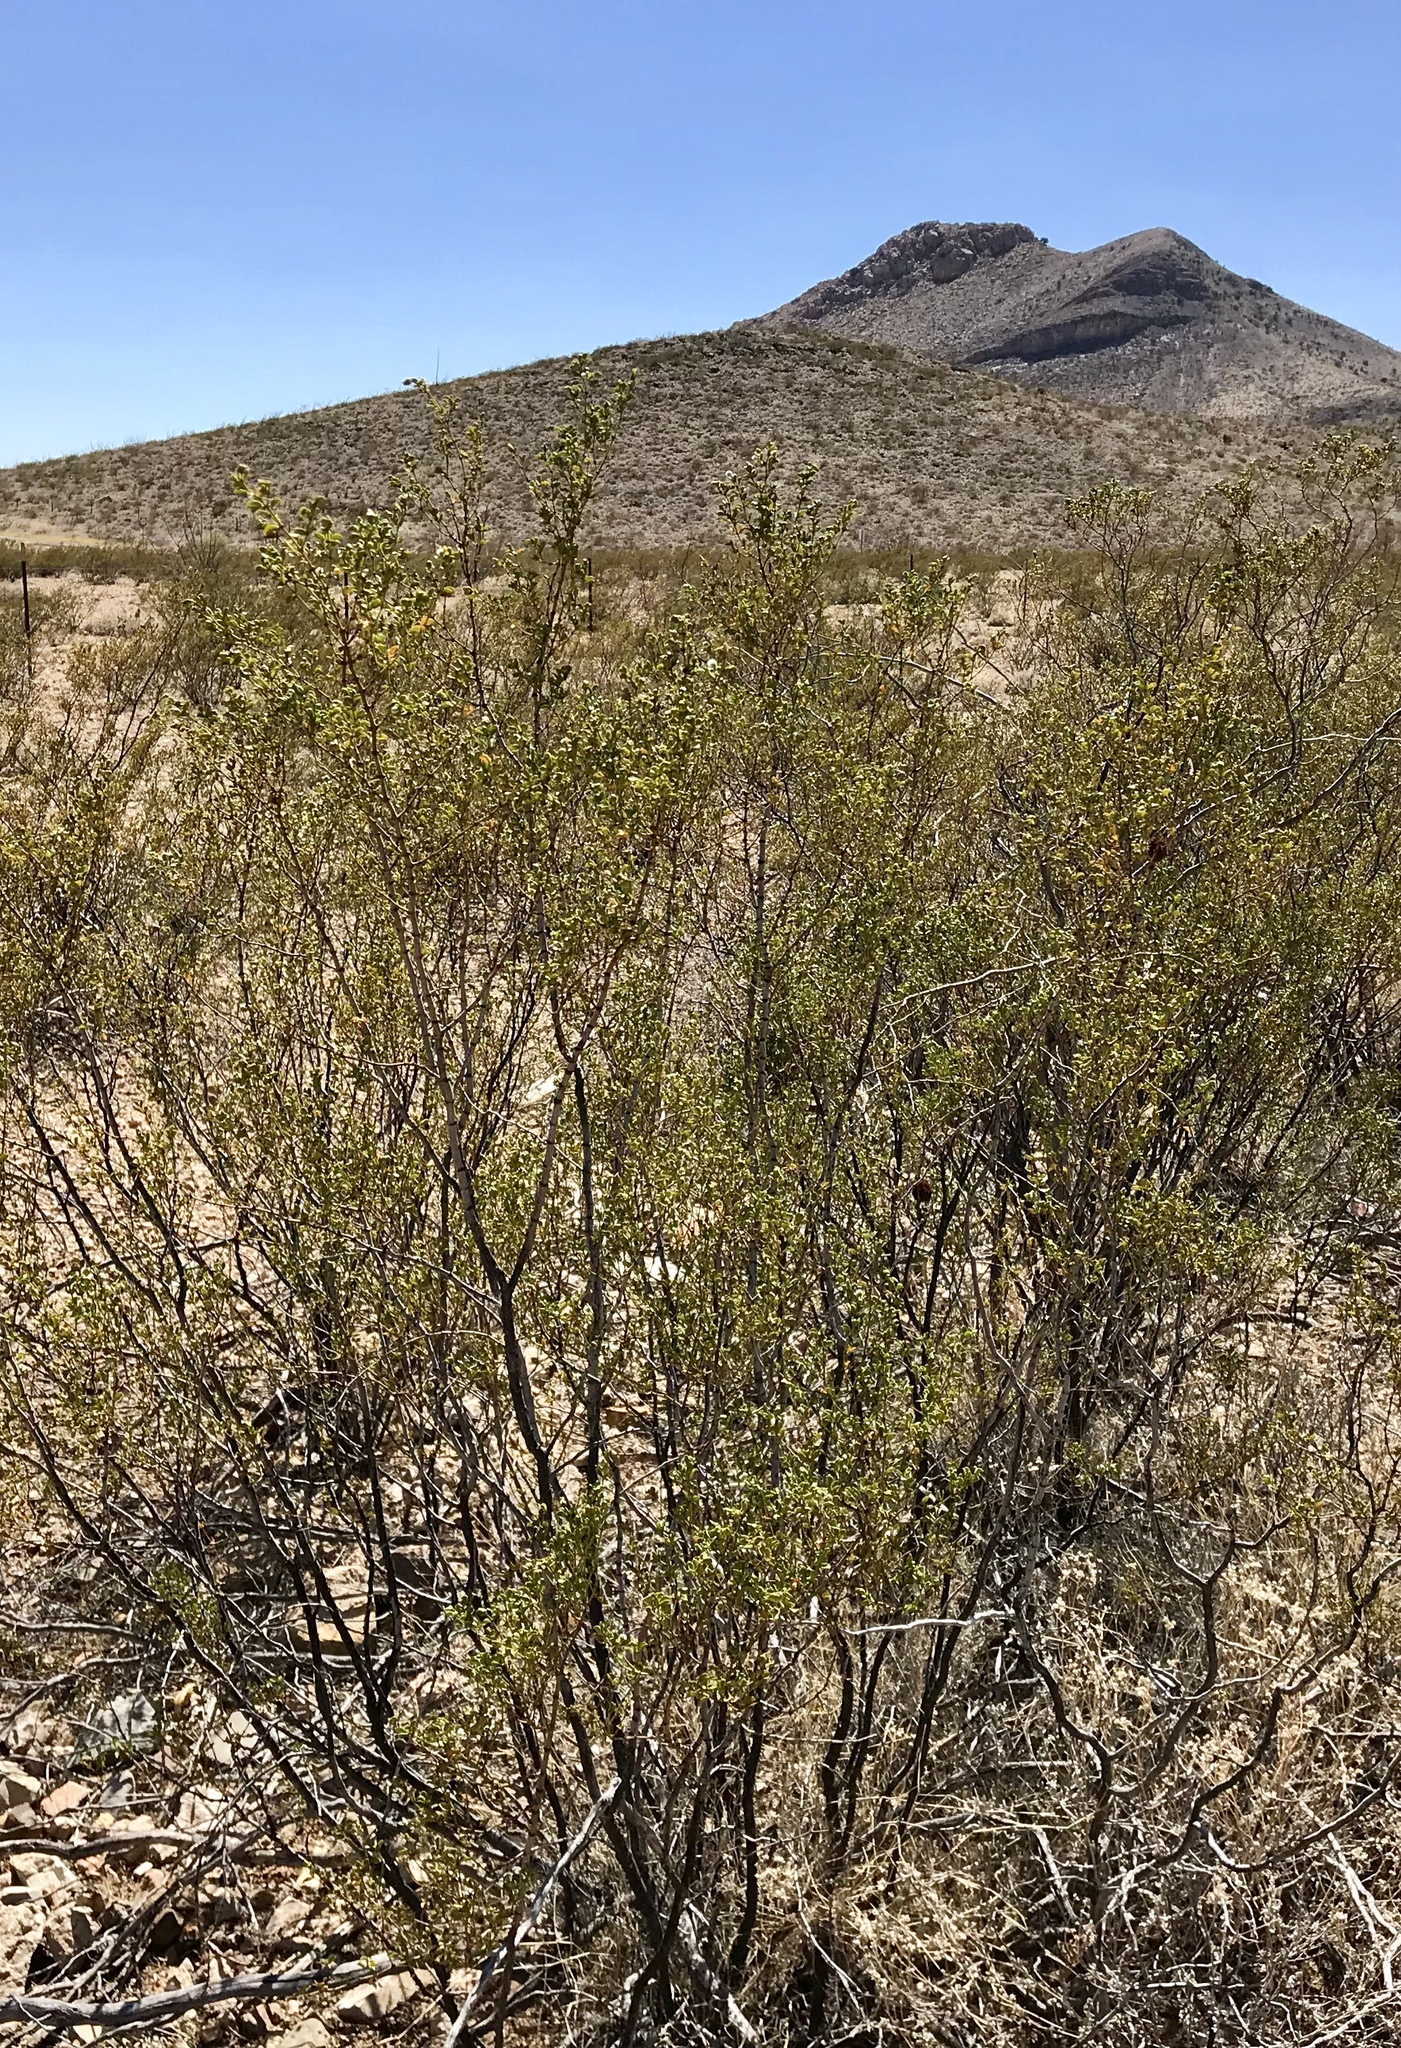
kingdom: Plantae
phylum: Tracheophyta
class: Magnoliopsida
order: Zygophyllales
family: Zygophyllaceae
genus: Larrea
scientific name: Larrea tridentata
